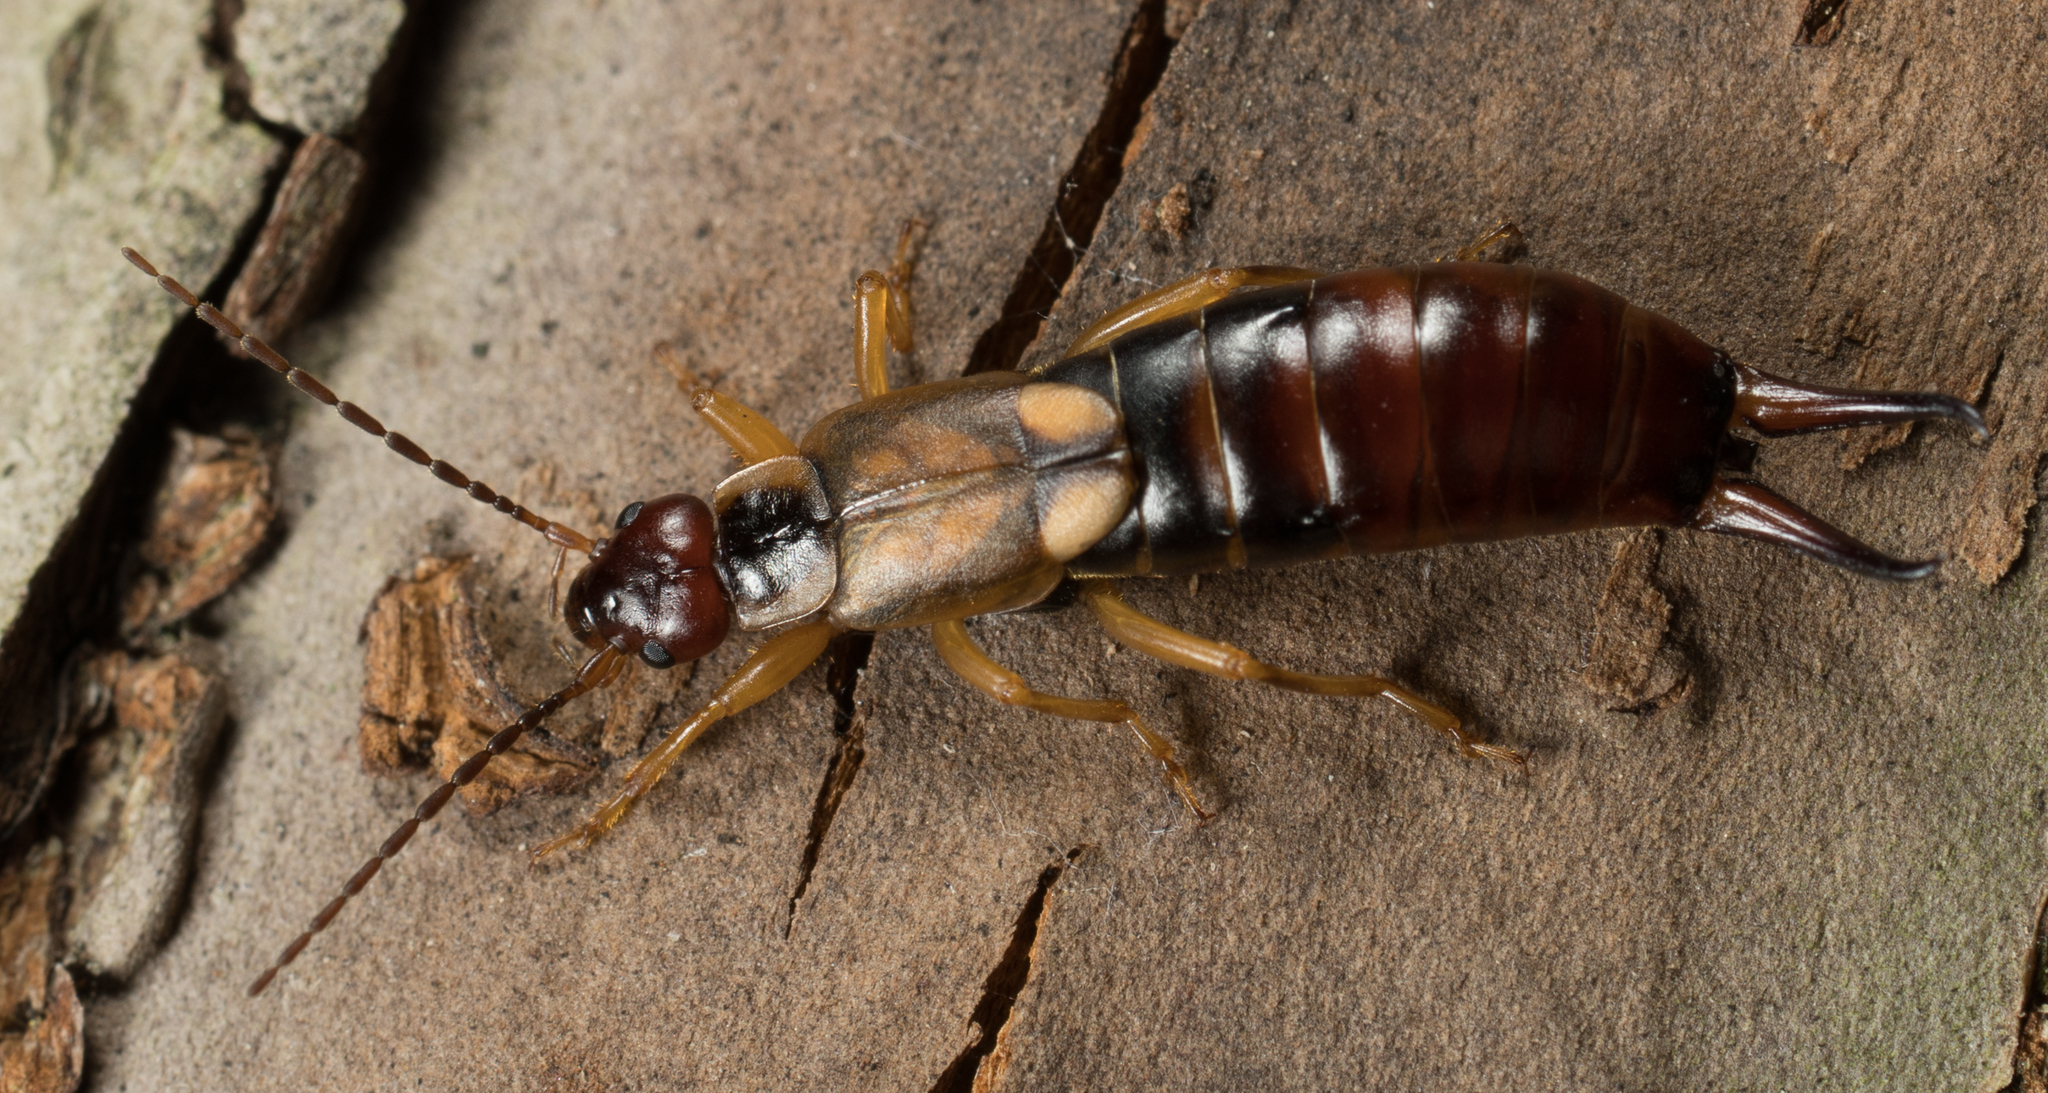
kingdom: Animalia
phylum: Arthropoda
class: Insecta
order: Dermaptera
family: Forficulidae
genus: Forficula
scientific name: Forficula
